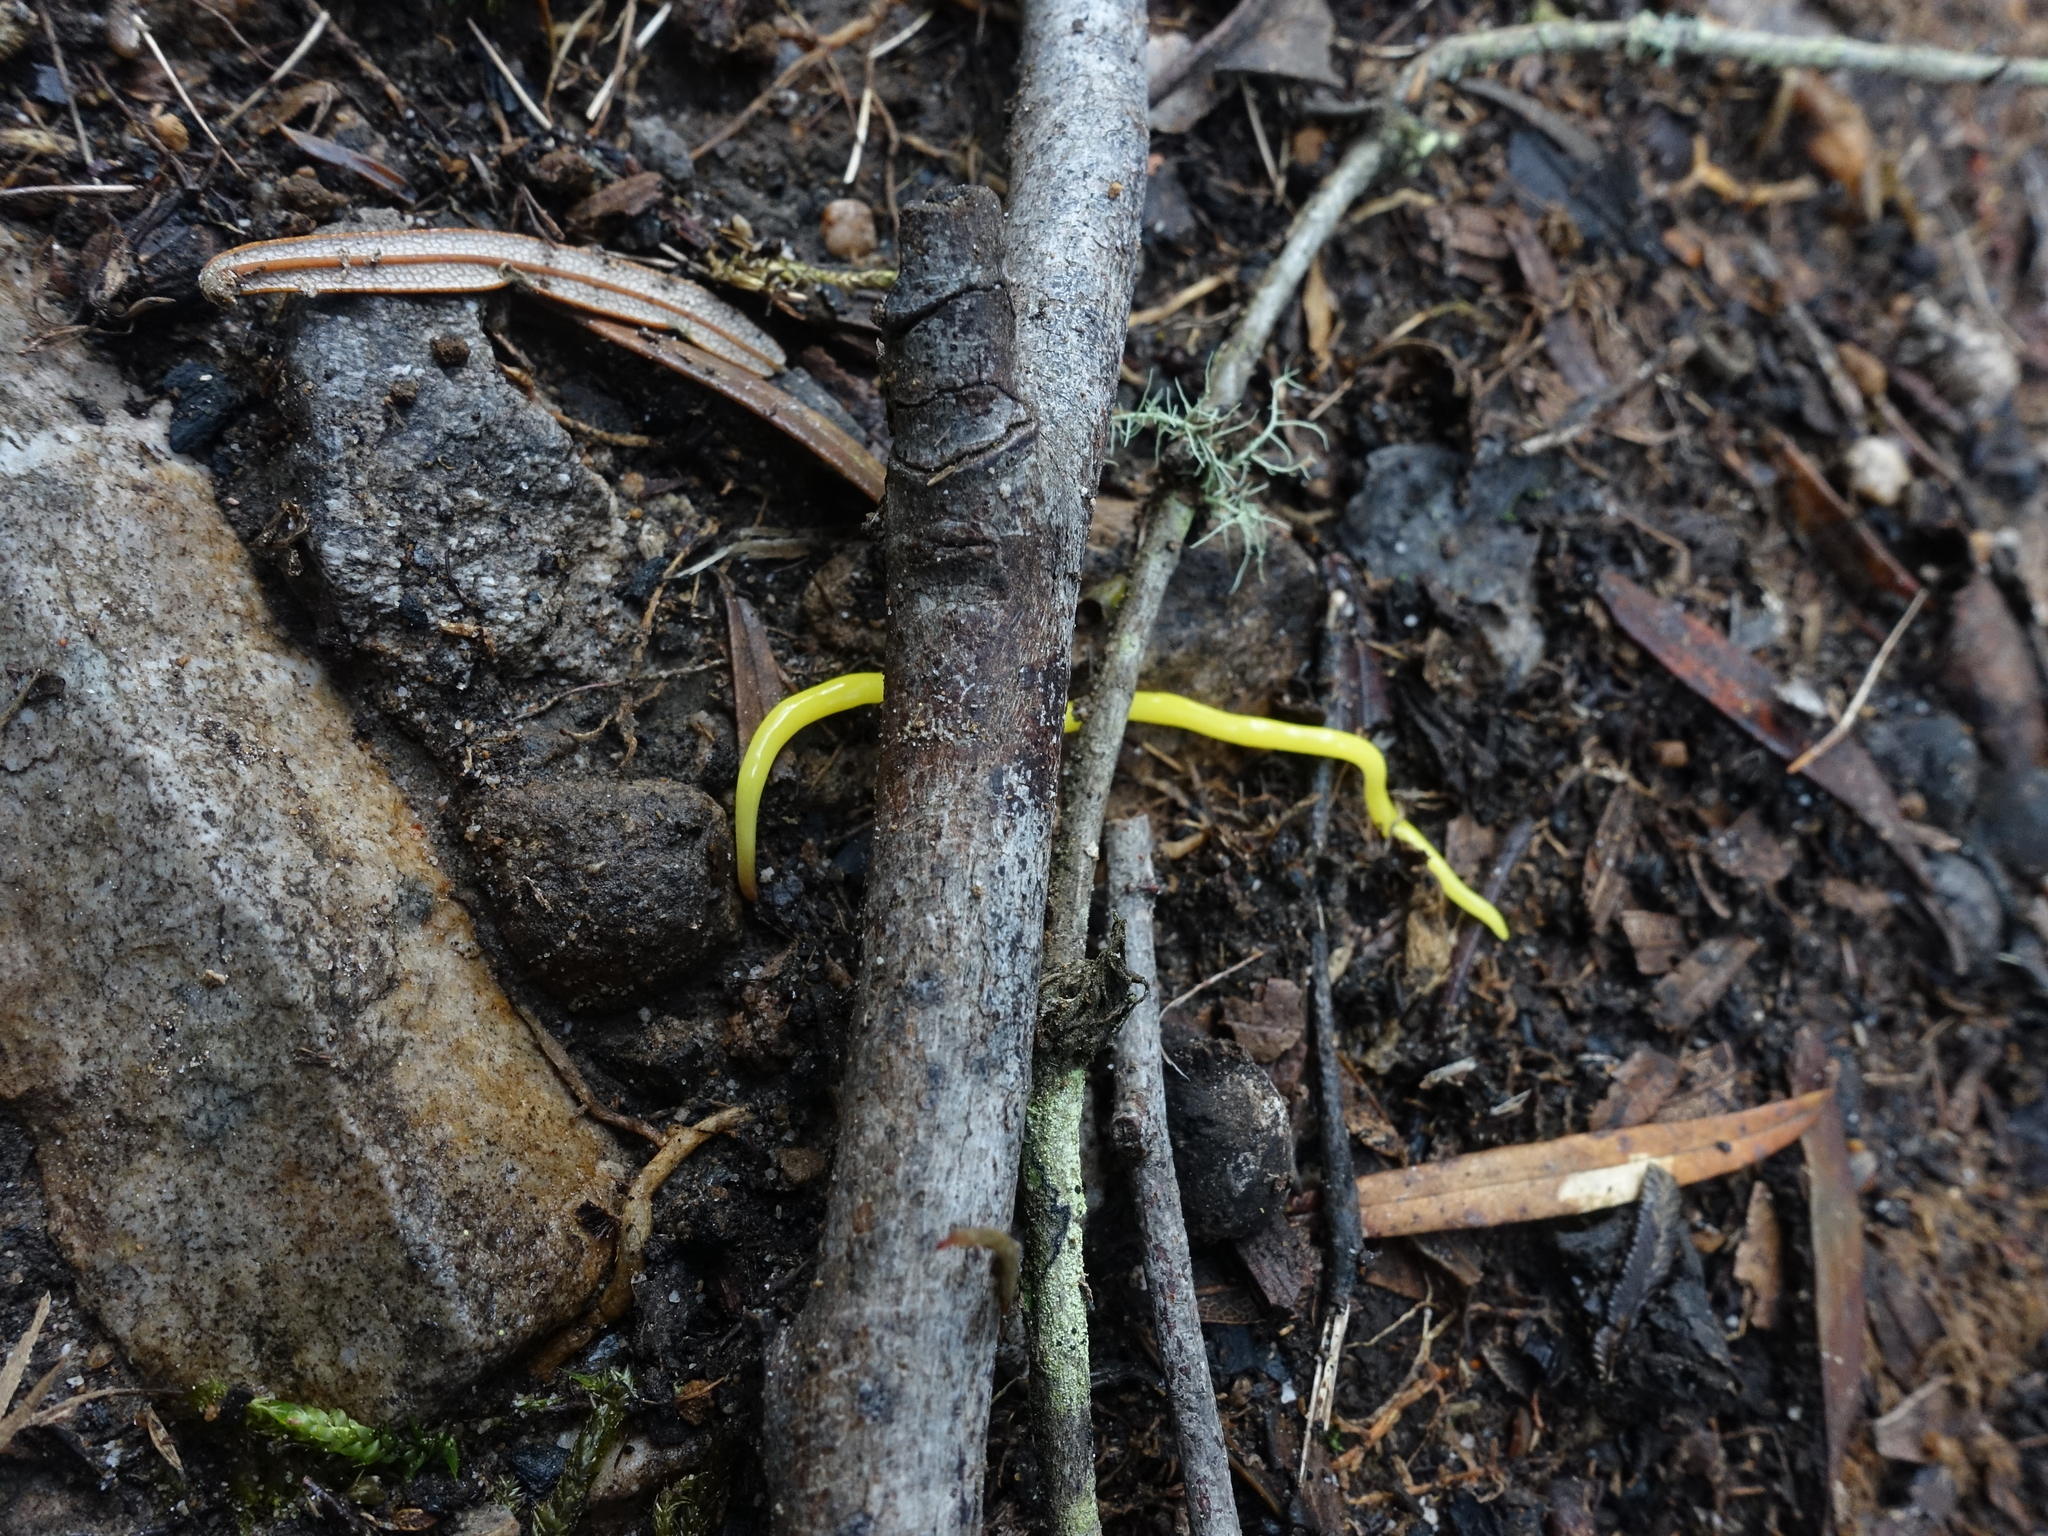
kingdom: Animalia
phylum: Platyhelminthes
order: Tricladida
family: Geoplanidae
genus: Fletchamia
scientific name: Fletchamia sugdeni
